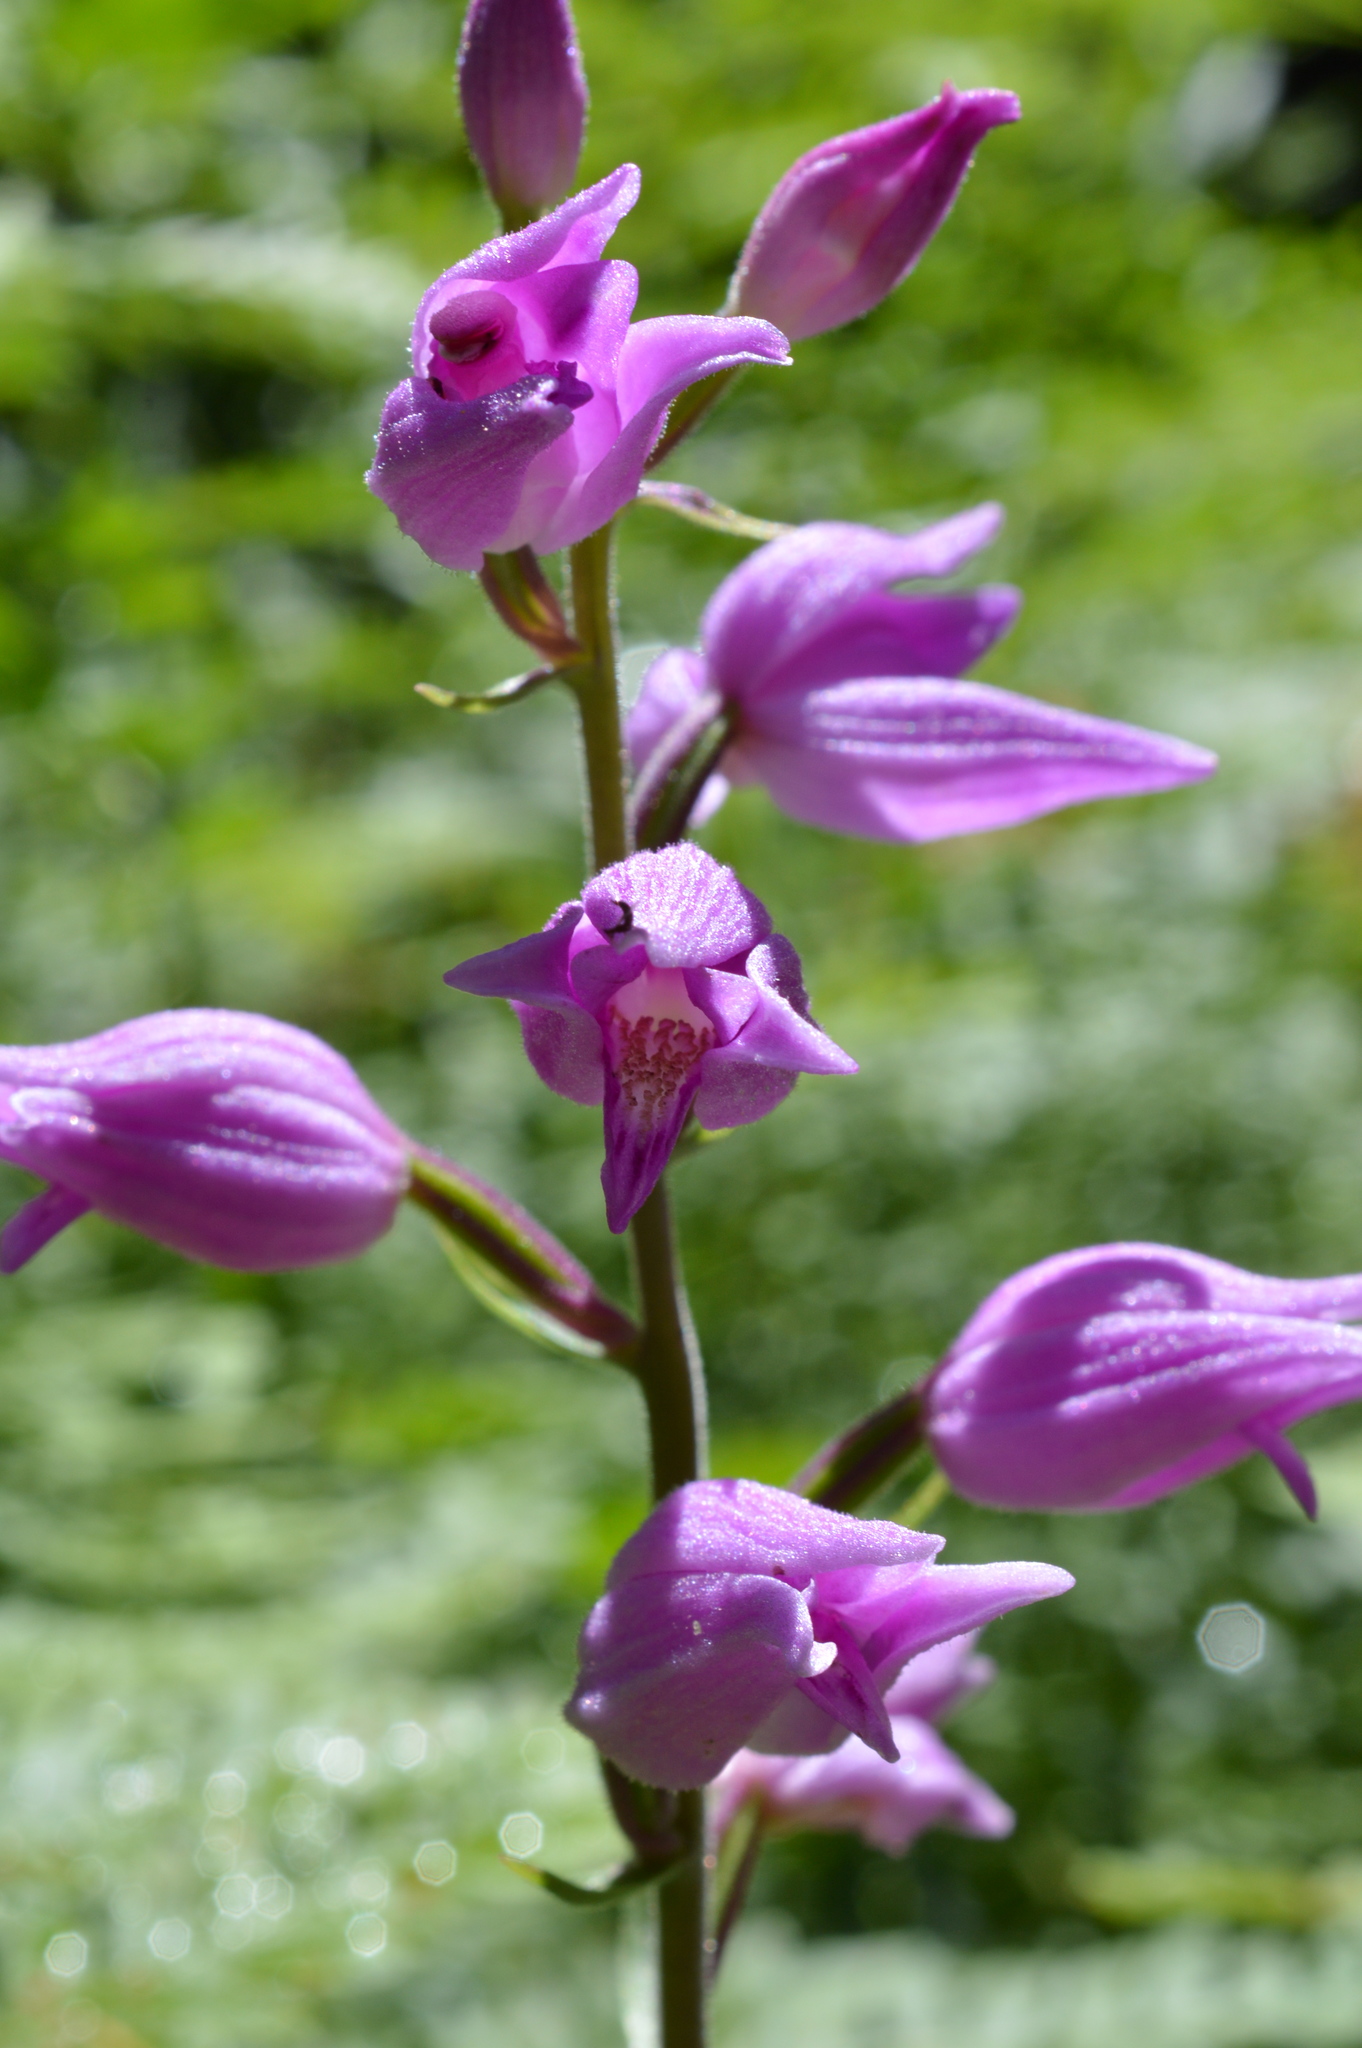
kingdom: Plantae
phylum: Tracheophyta
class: Liliopsida
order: Asparagales
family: Orchidaceae
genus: Cephalanthera
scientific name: Cephalanthera rubra
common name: Red helleborine
